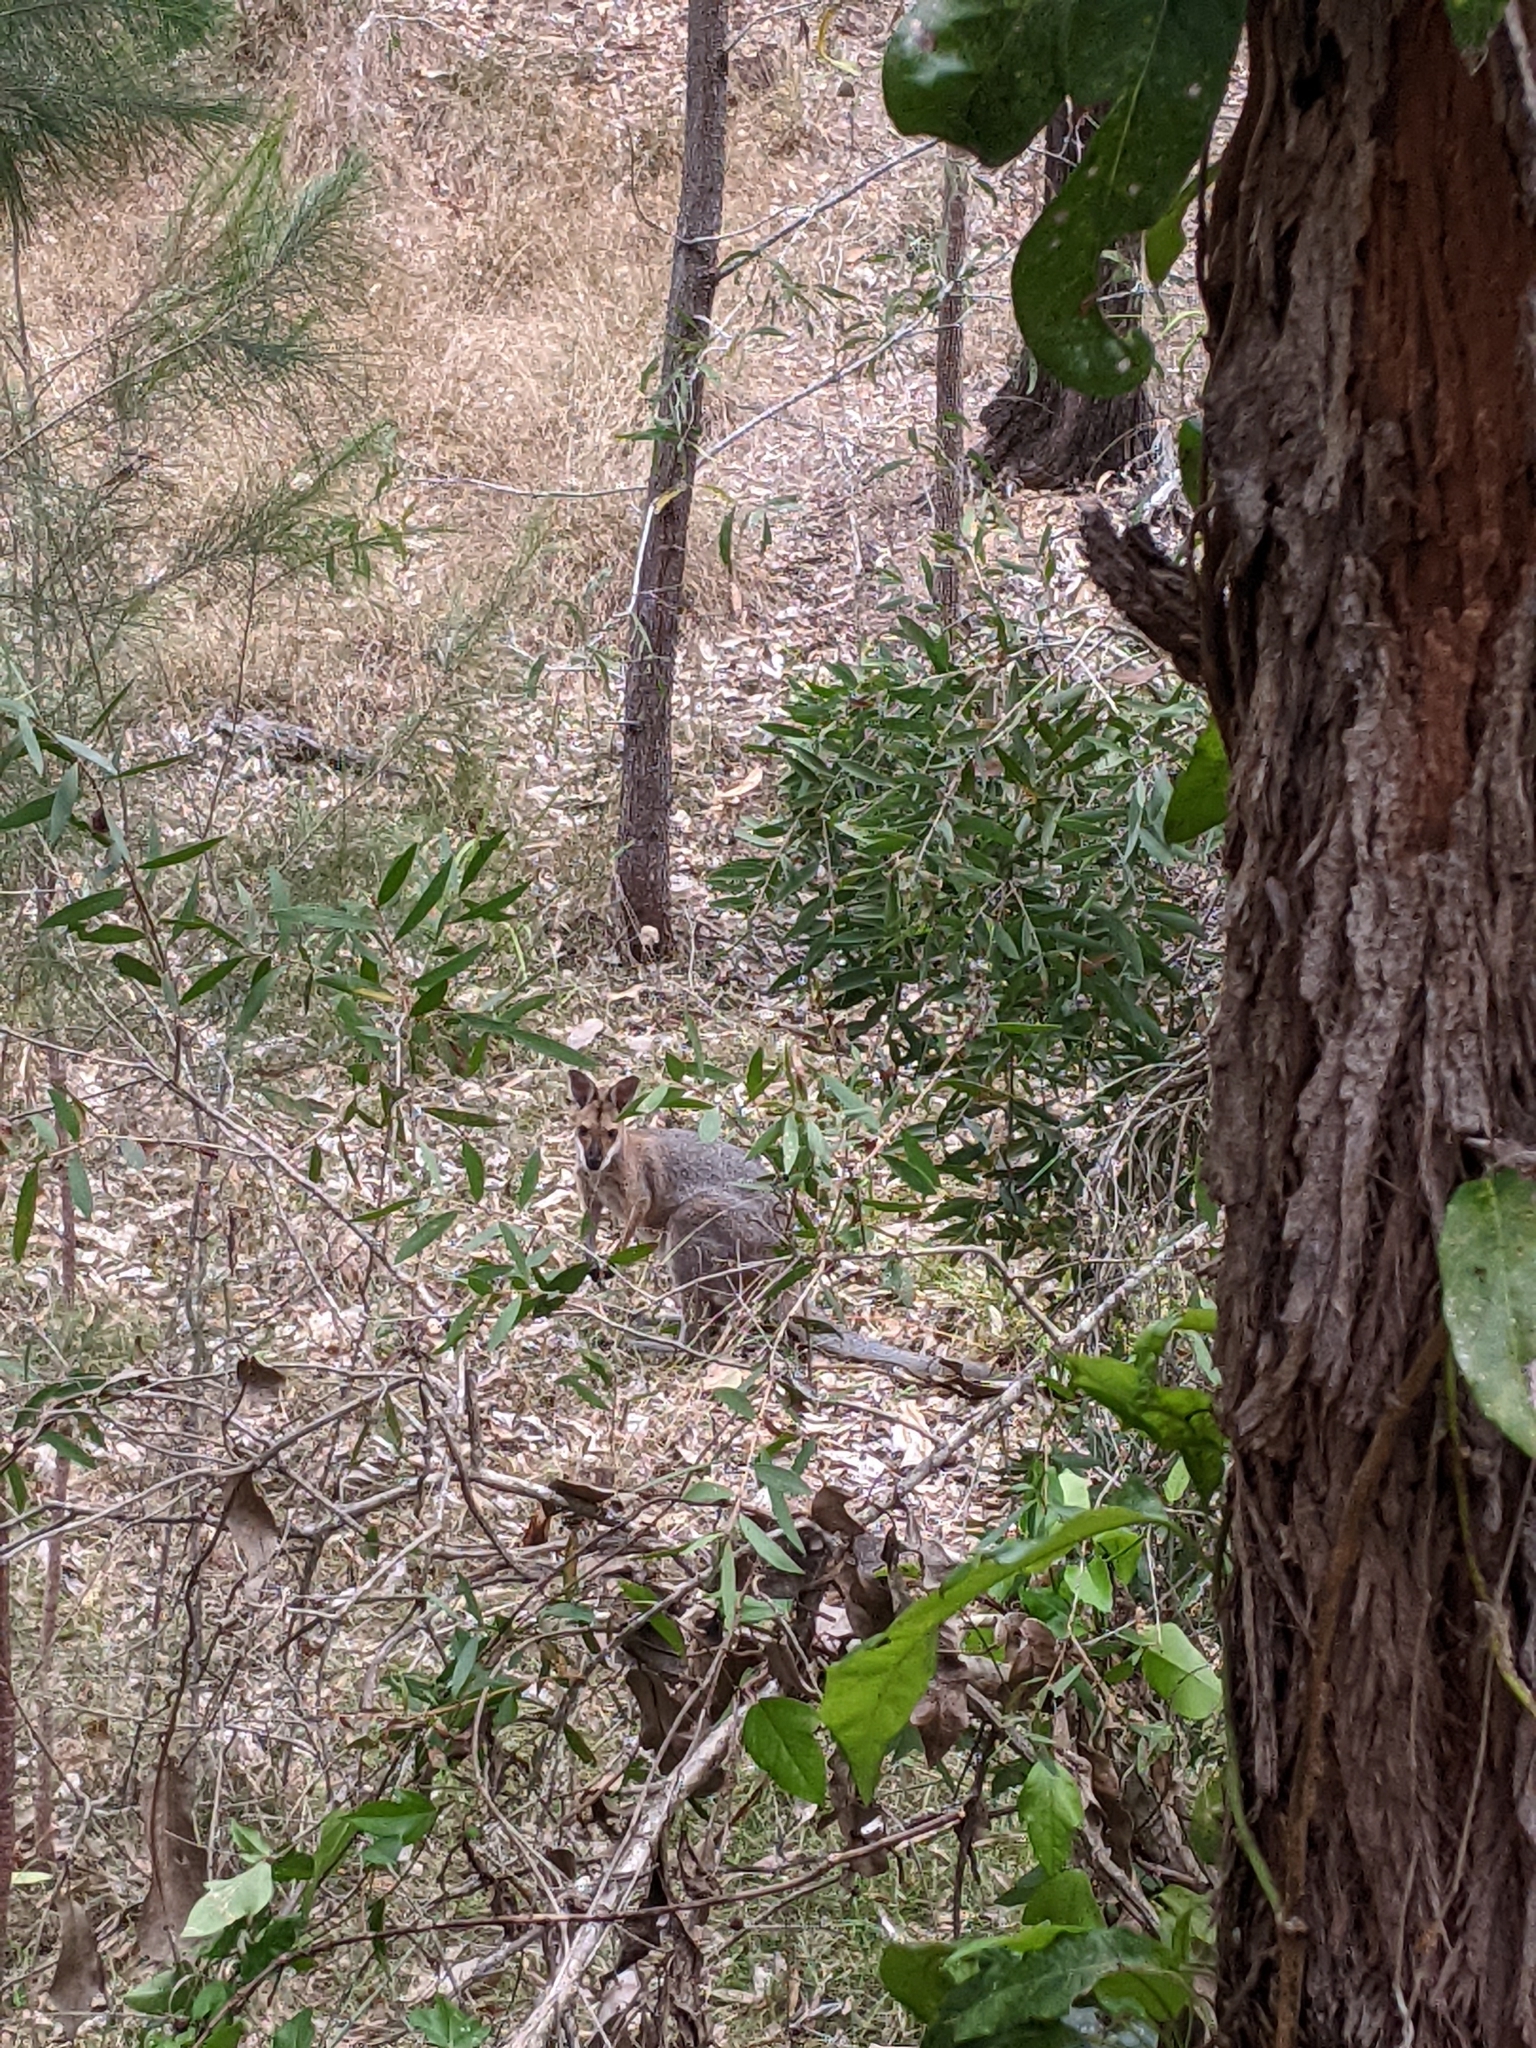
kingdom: Animalia
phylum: Chordata
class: Mammalia
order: Diprotodontia
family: Macropodidae
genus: Notamacropus
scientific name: Notamacropus rufogriseus
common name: Red-necked wallaby
